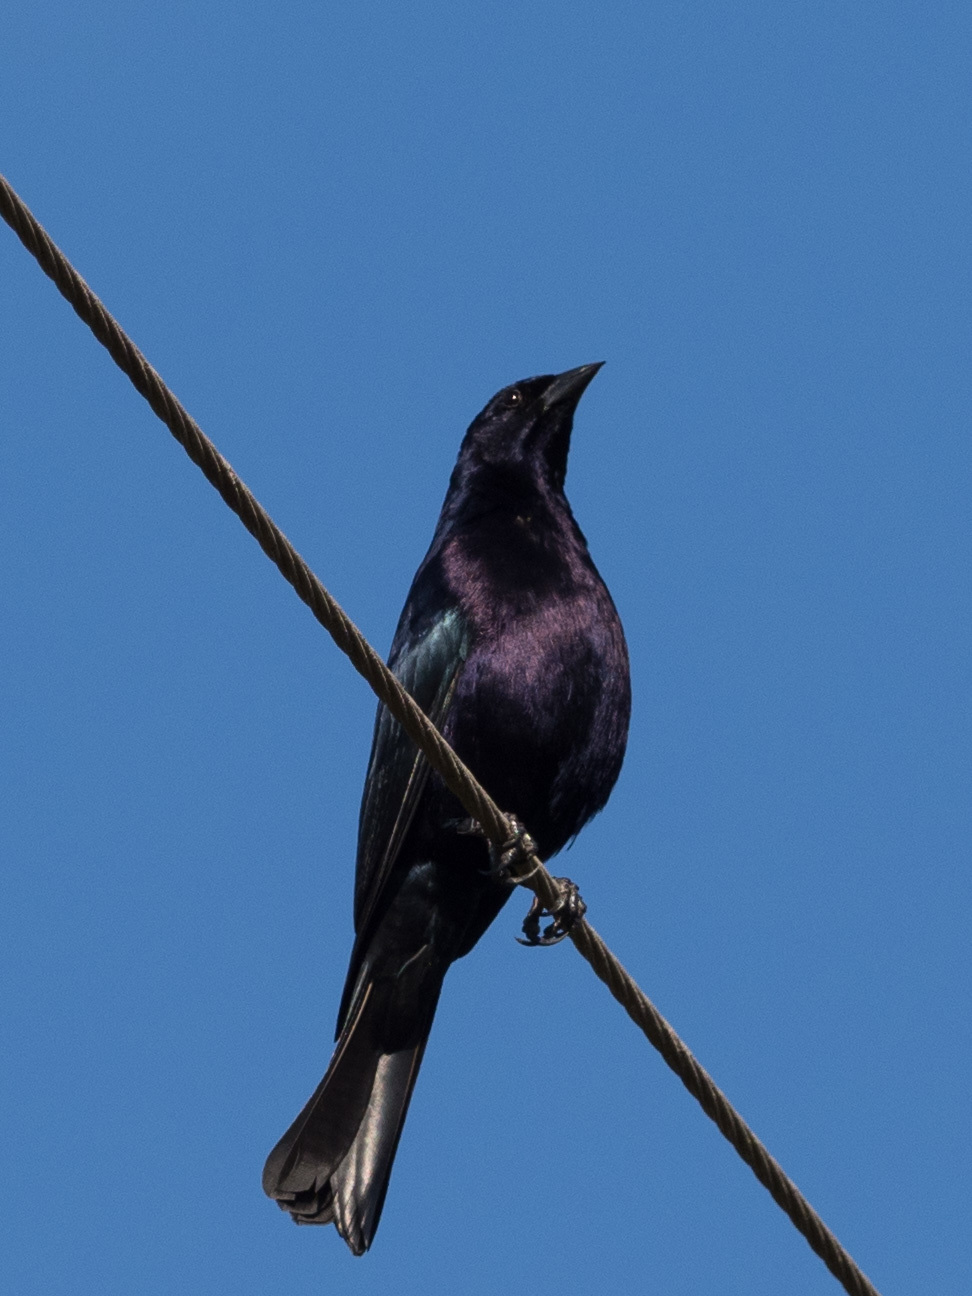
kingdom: Animalia
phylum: Chordata
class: Aves
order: Passeriformes
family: Icteridae
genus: Molothrus
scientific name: Molothrus bonariensis
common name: Shiny cowbird
